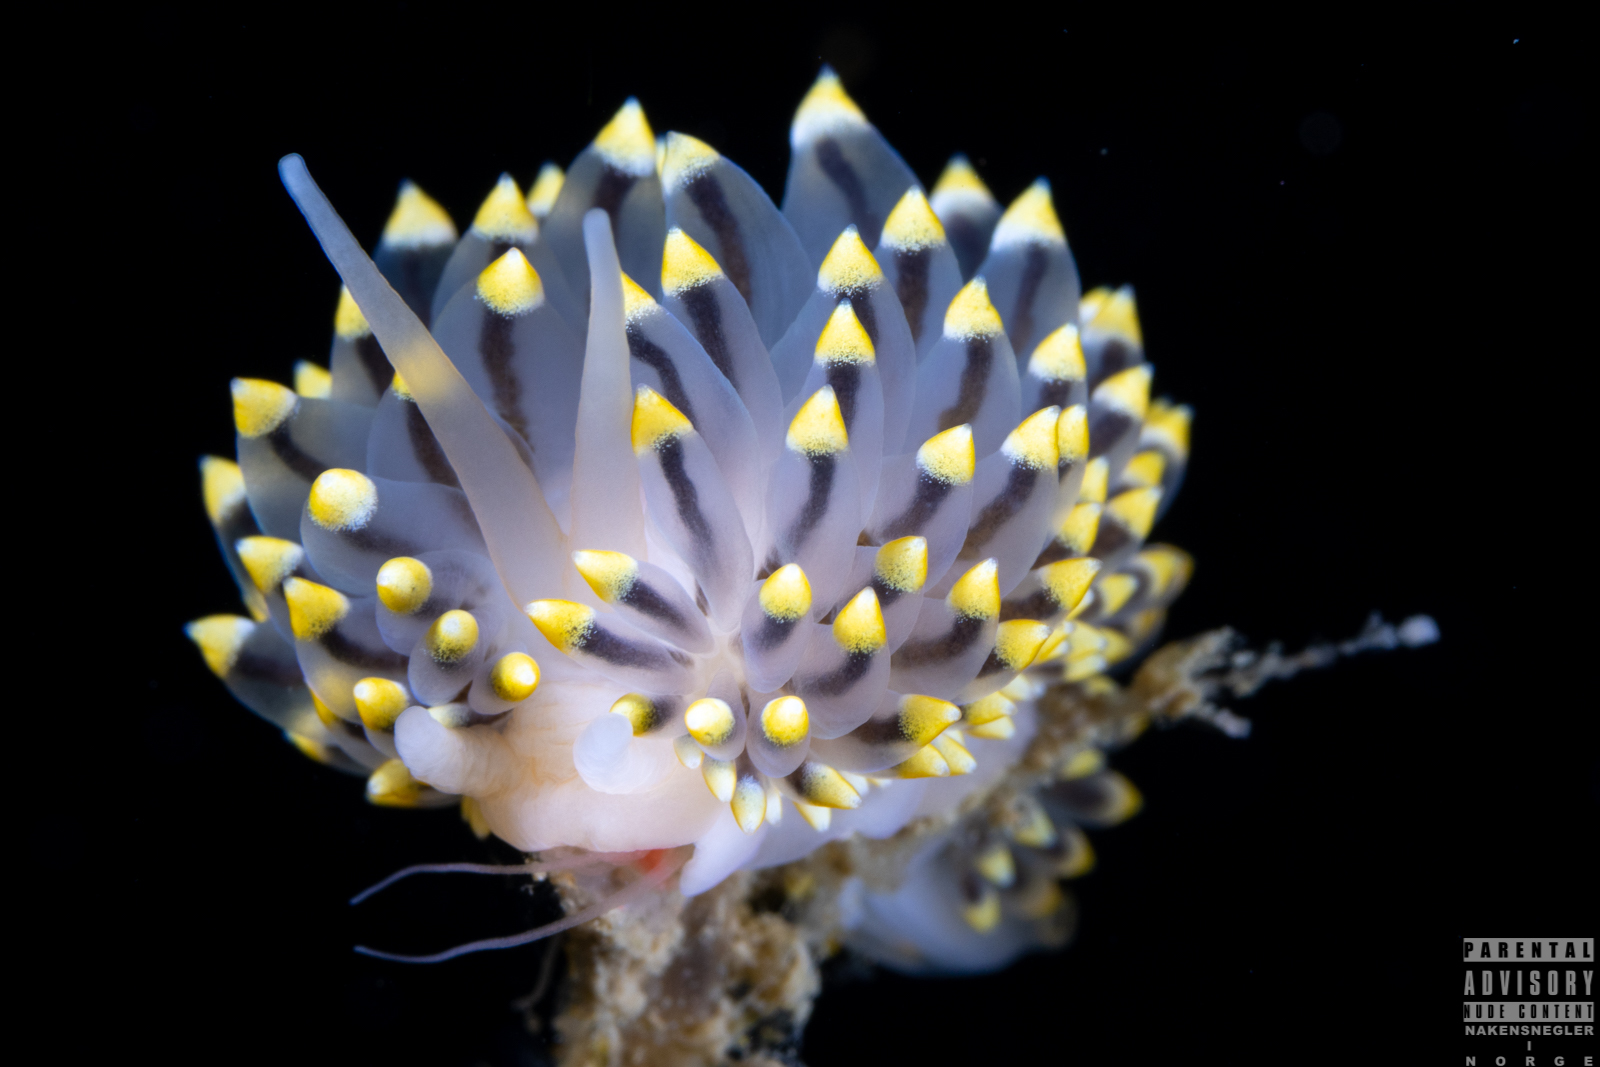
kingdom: Animalia
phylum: Mollusca
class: Gastropoda
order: Nudibranchia
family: Eubranchidae
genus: Eubranchus
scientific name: Eubranchus tricolor
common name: Painted balloon aeolis
